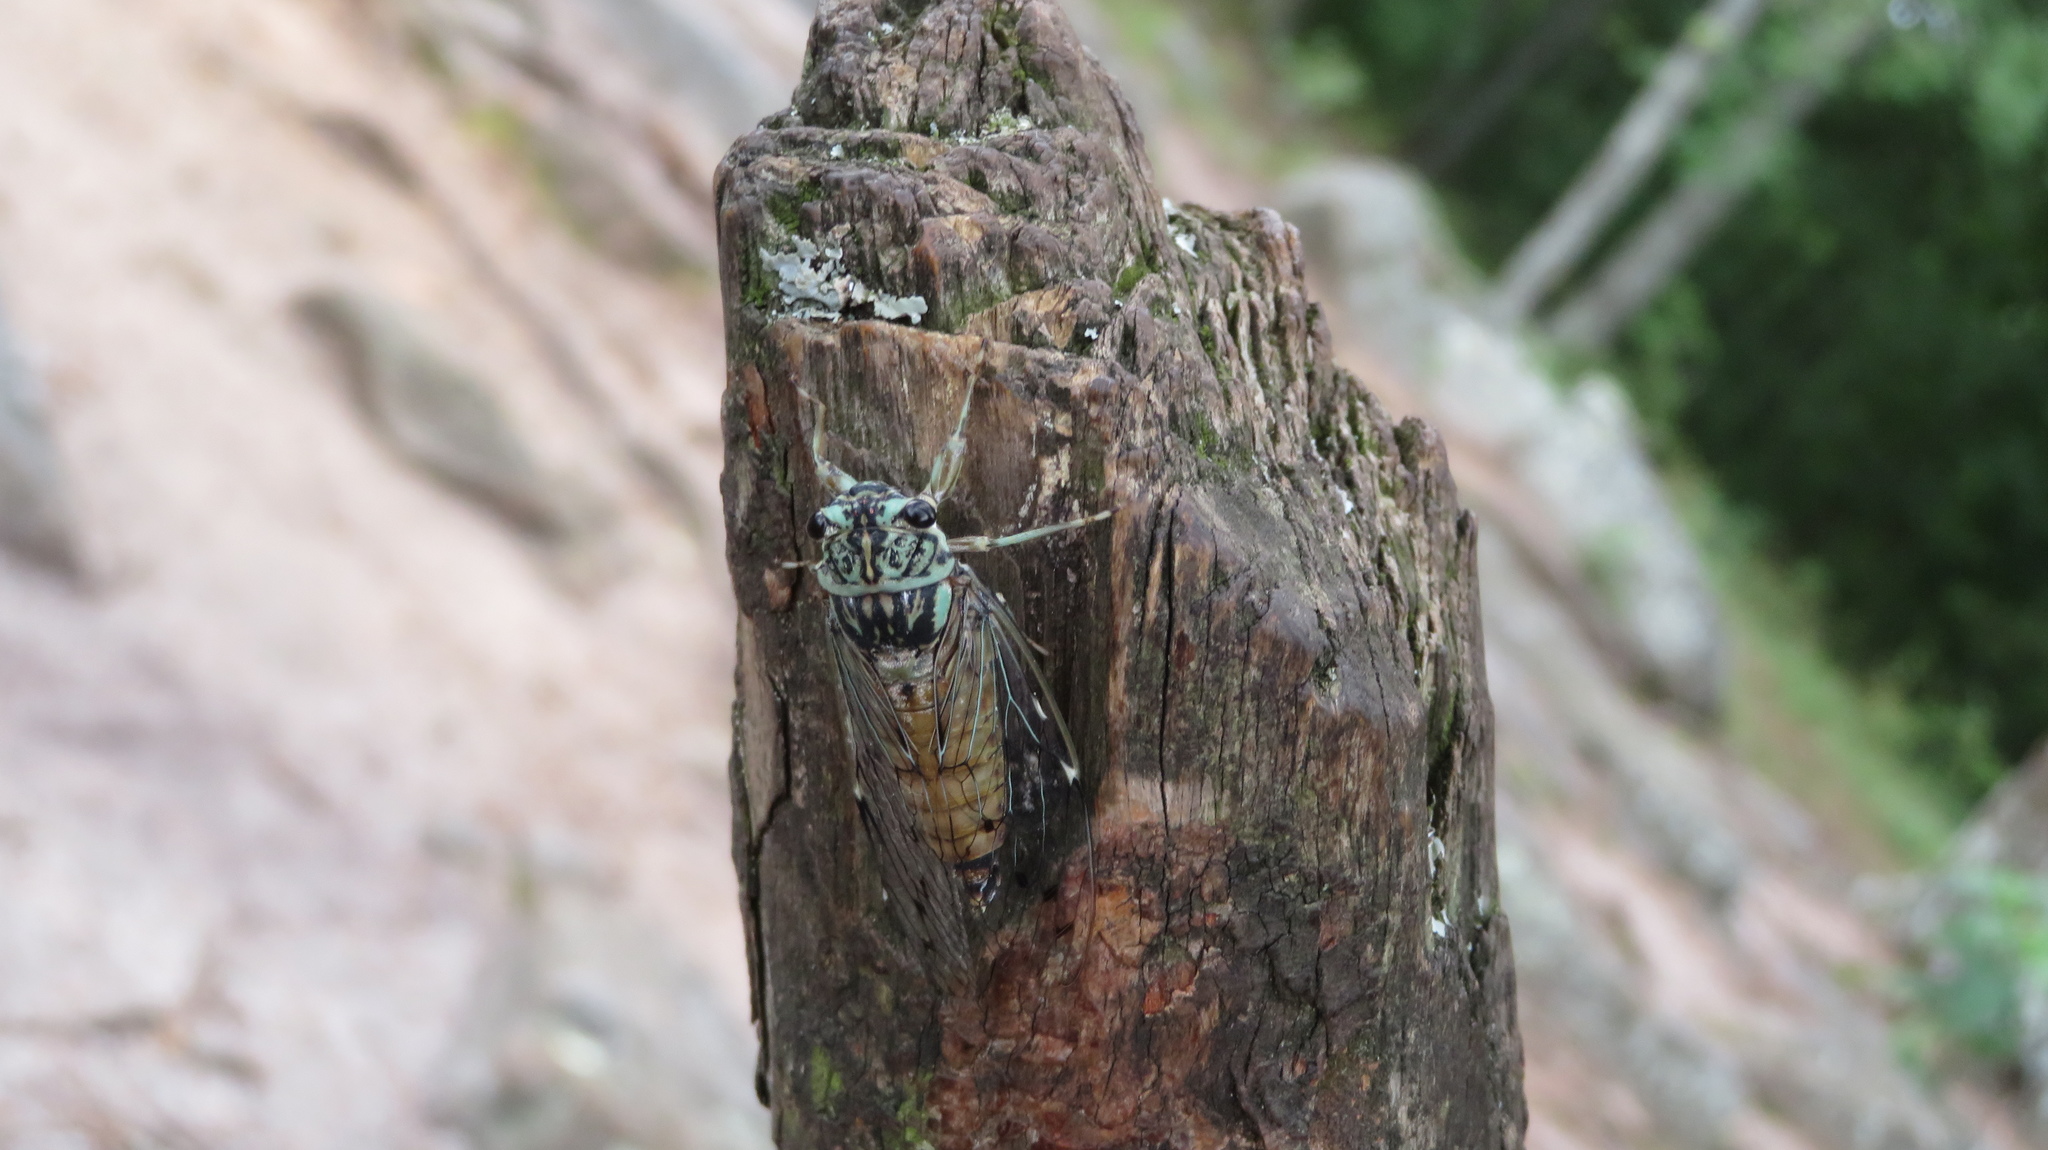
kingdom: Animalia
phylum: Arthropoda
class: Insecta
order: Hemiptera
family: Cicadidae
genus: Neocicada
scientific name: Neocicada hieroglyphica
